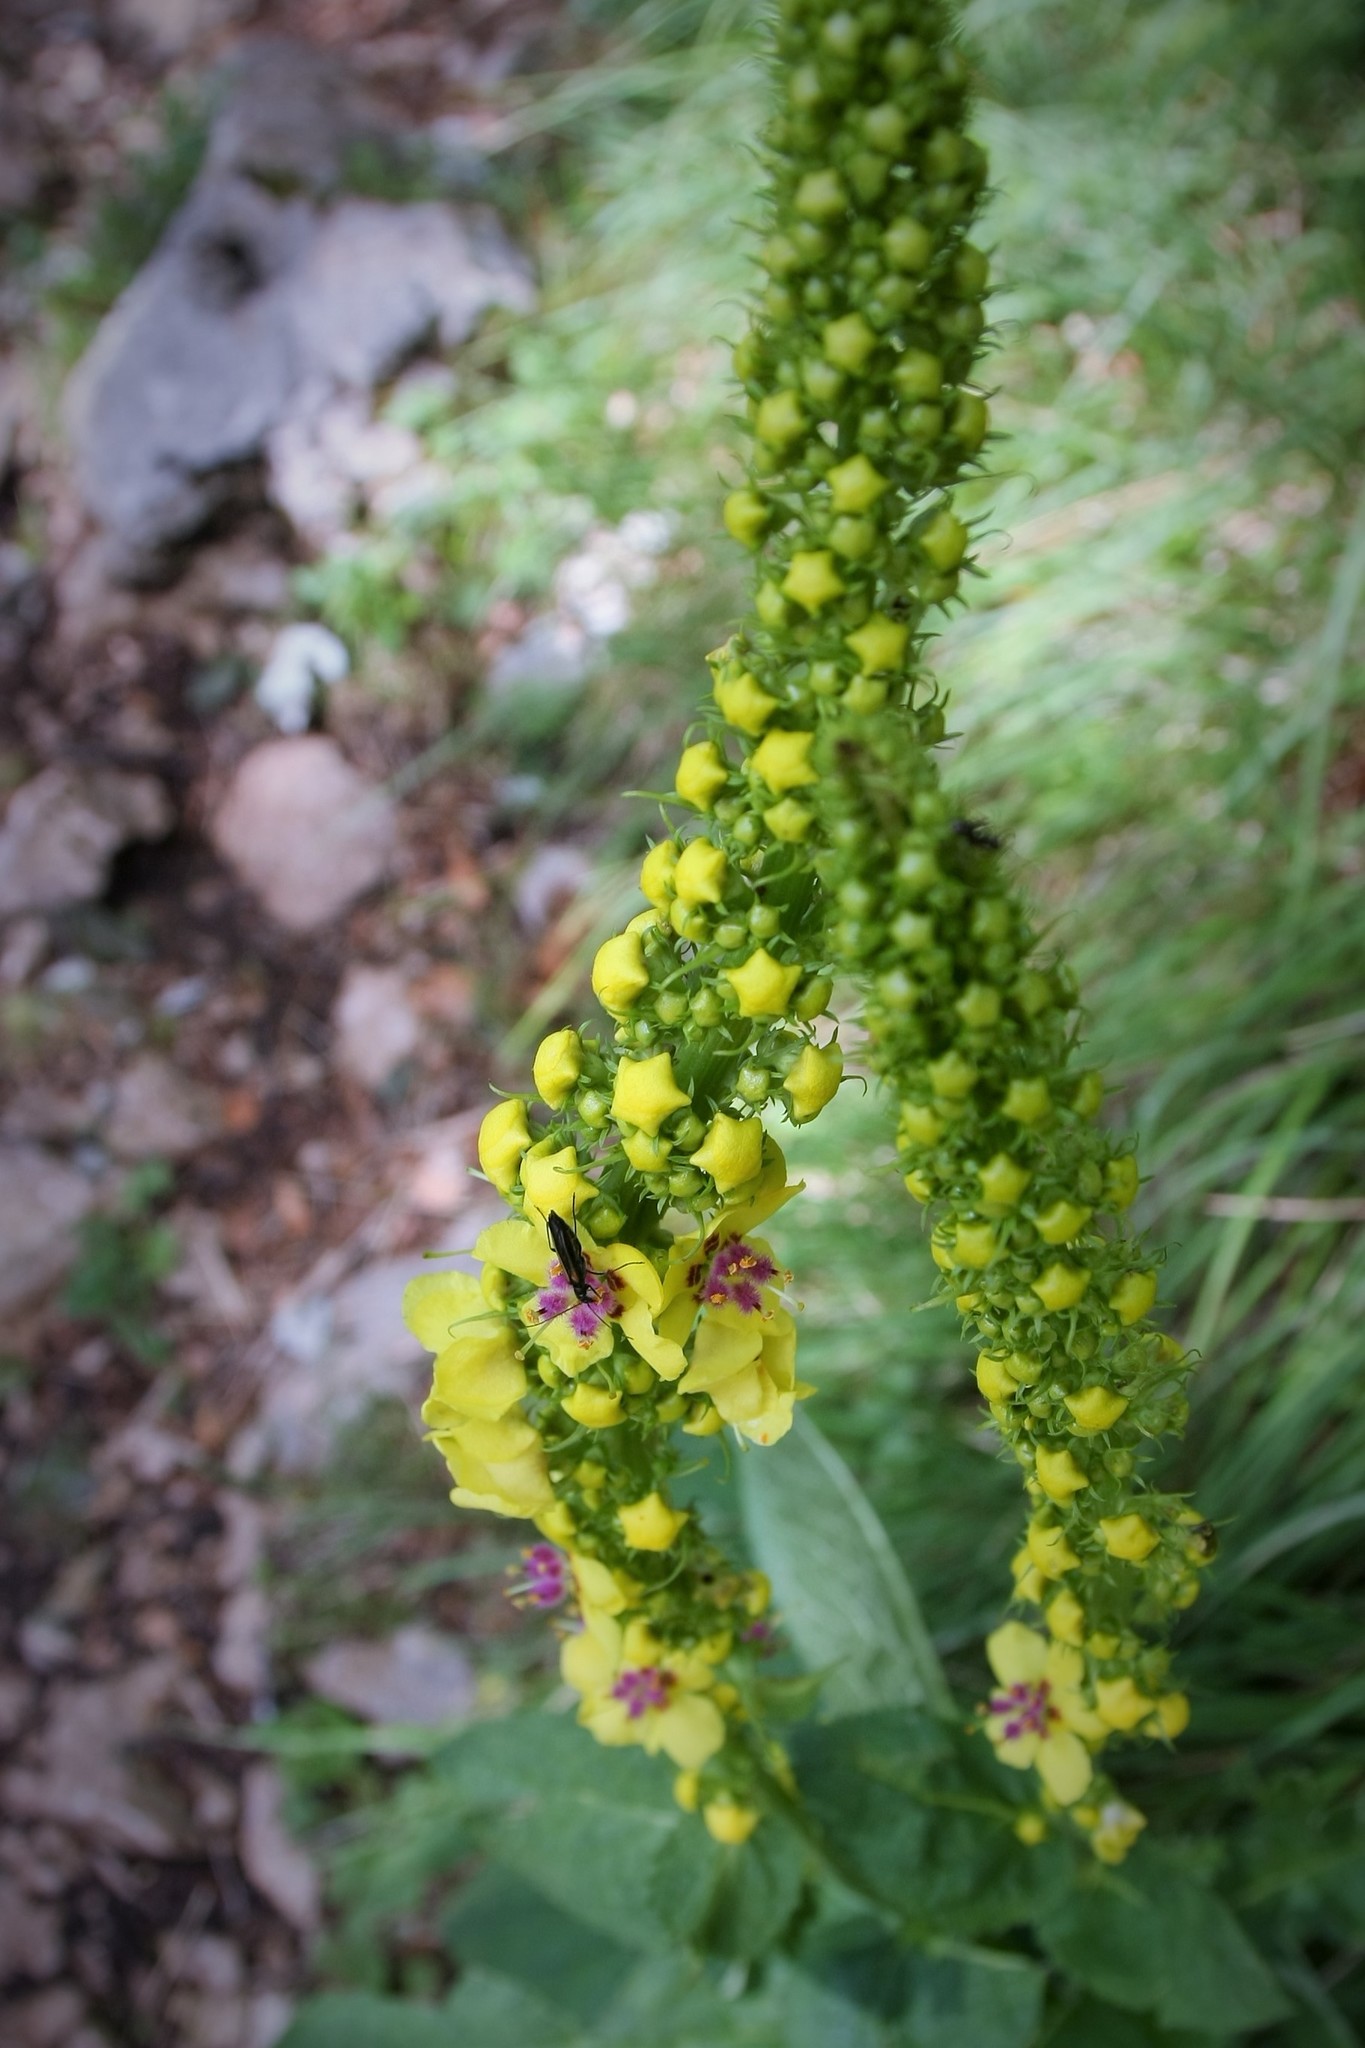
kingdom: Plantae
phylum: Tracheophyta
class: Magnoliopsida
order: Lamiales
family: Scrophulariaceae
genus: Verbascum
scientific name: Verbascum nigrum
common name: Dark mullein
